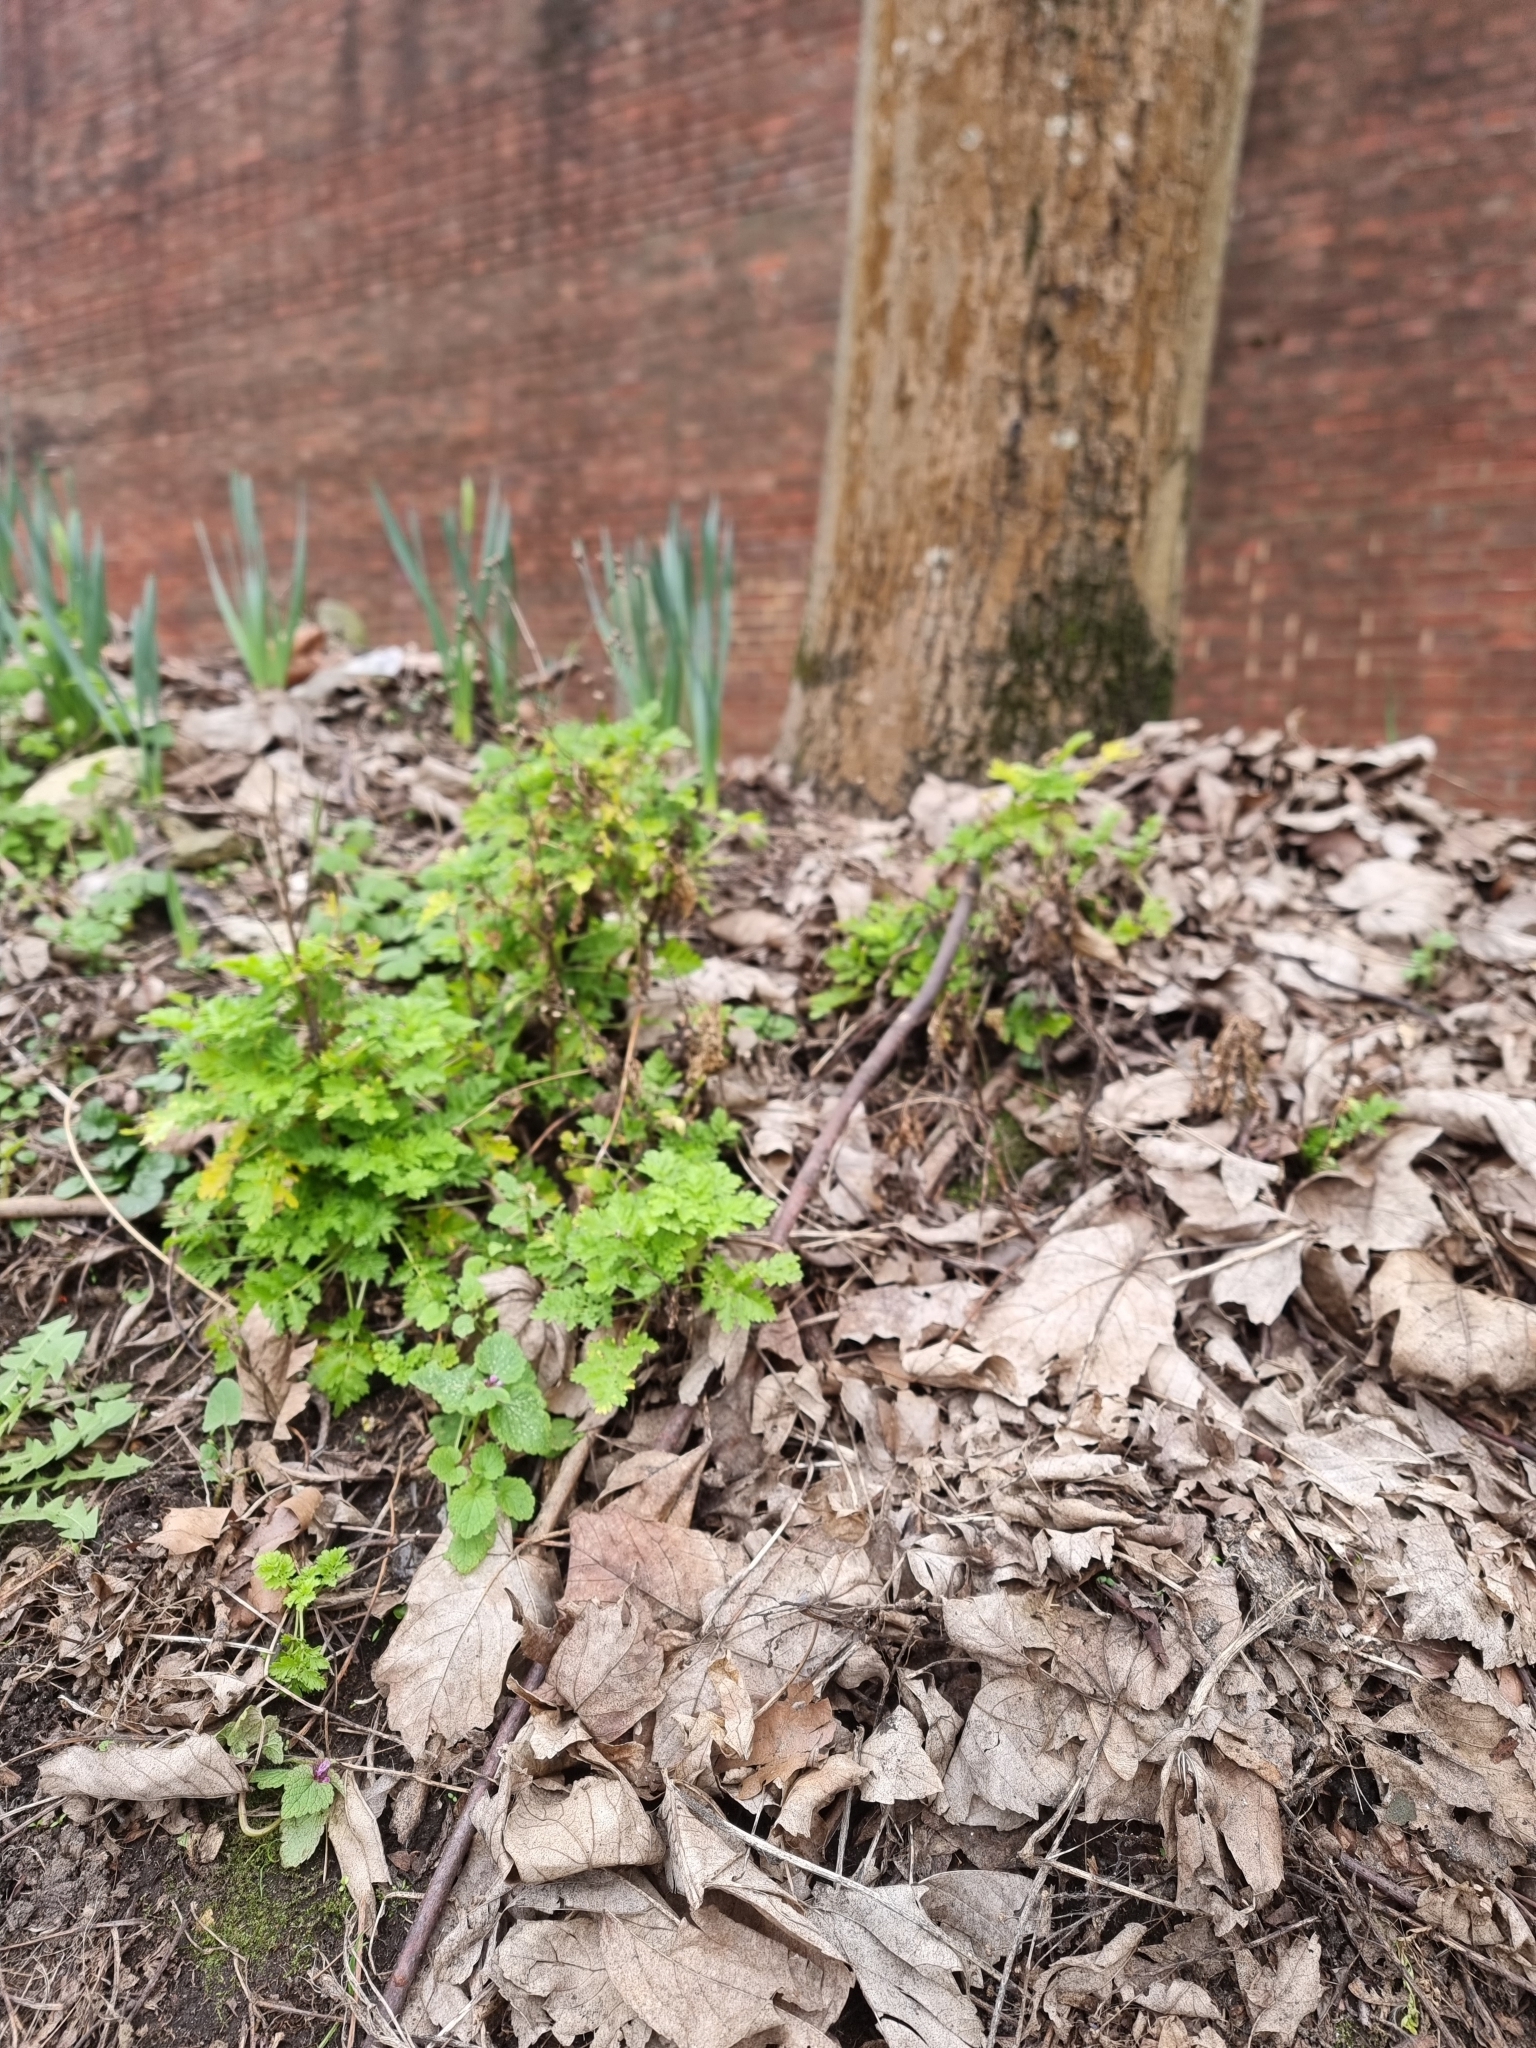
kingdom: Plantae
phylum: Tracheophyta
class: Magnoliopsida
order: Asterales
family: Asteraceae
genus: Tanacetum
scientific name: Tanacetum parthenium
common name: Feverfew
